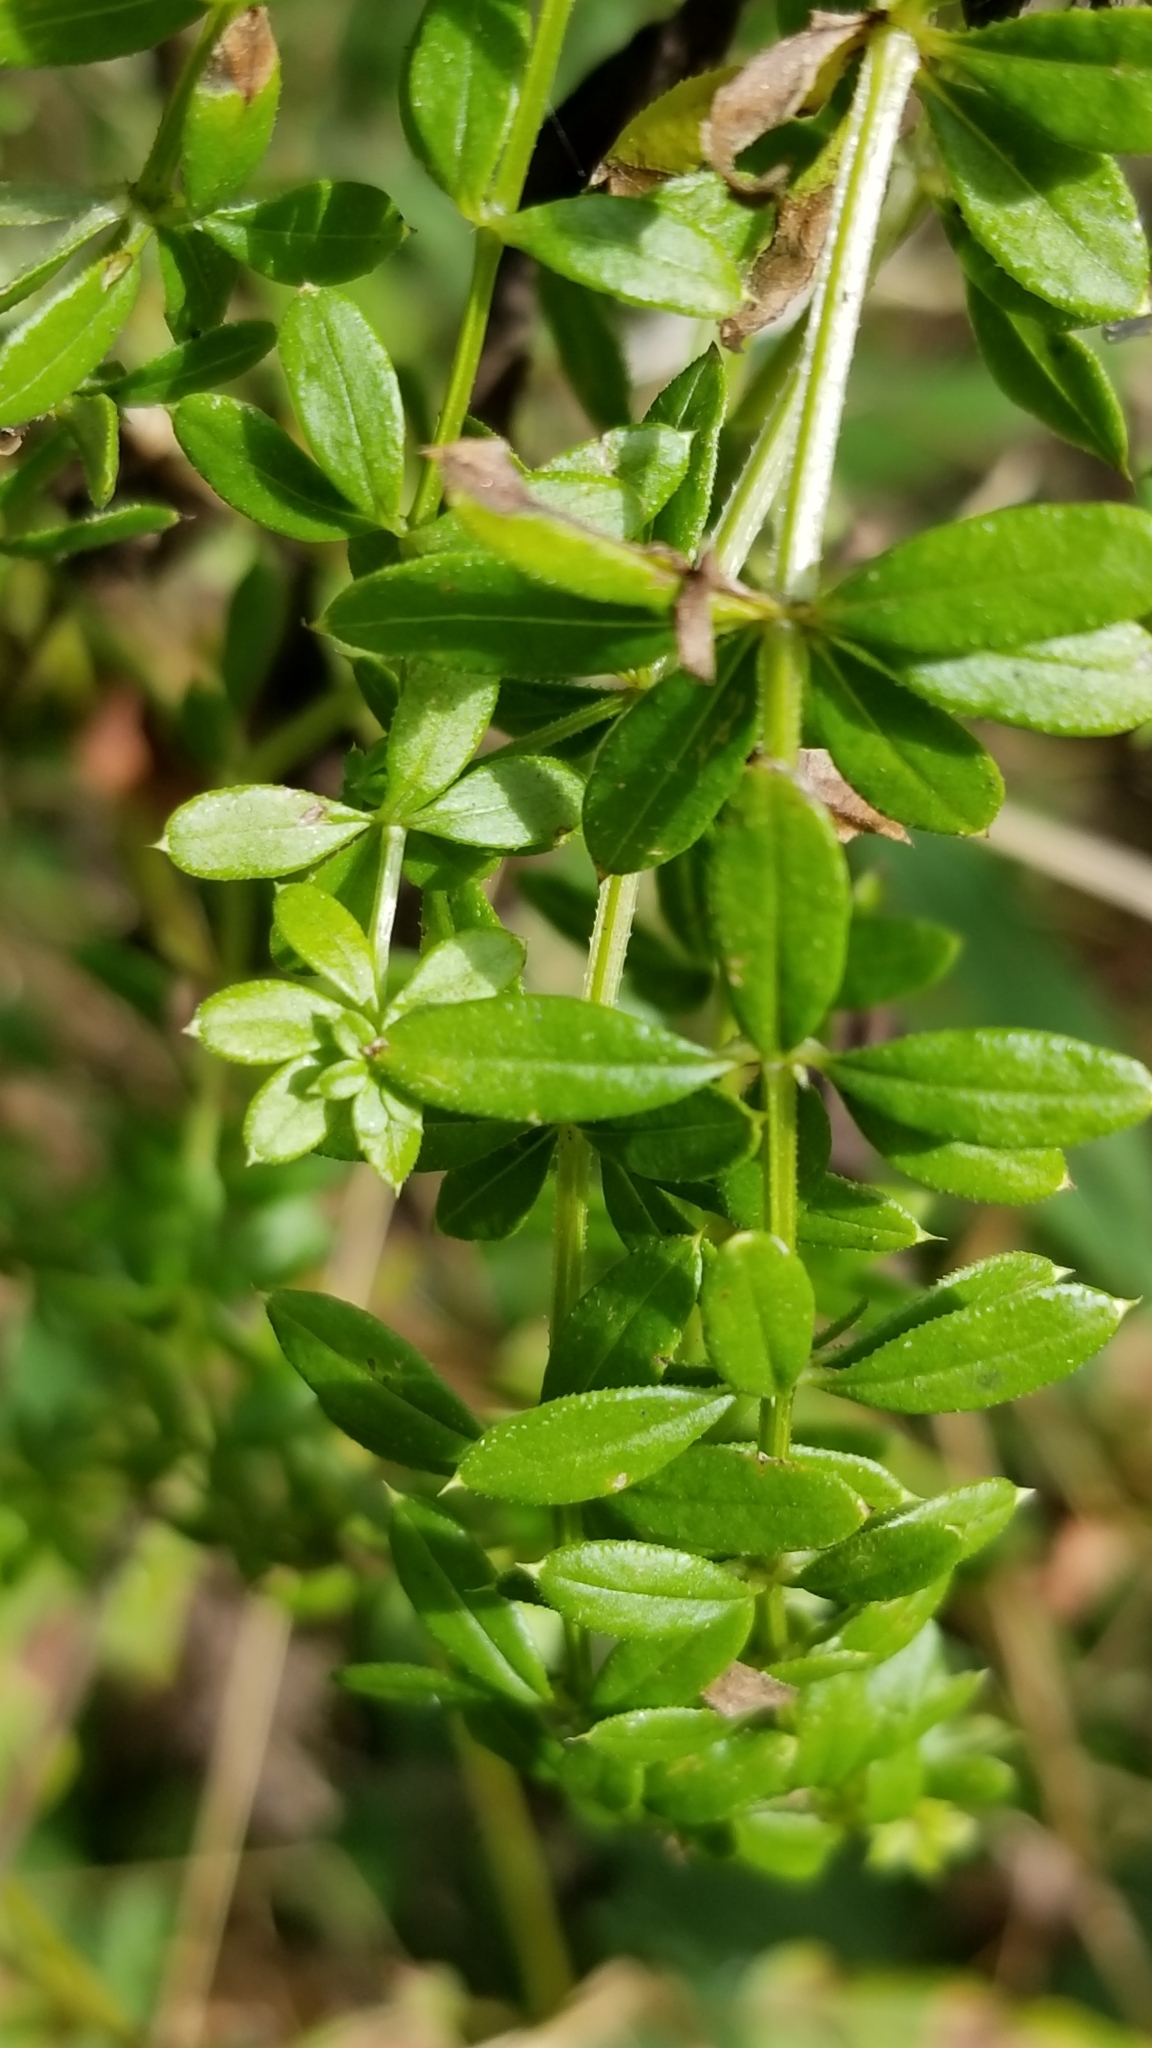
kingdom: Plantae
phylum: Tracheophyta
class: Magnoliopsida
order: Gentianales
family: Rubiaceae
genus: Galium
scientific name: Galium asprellum
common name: Rough bedstraw
